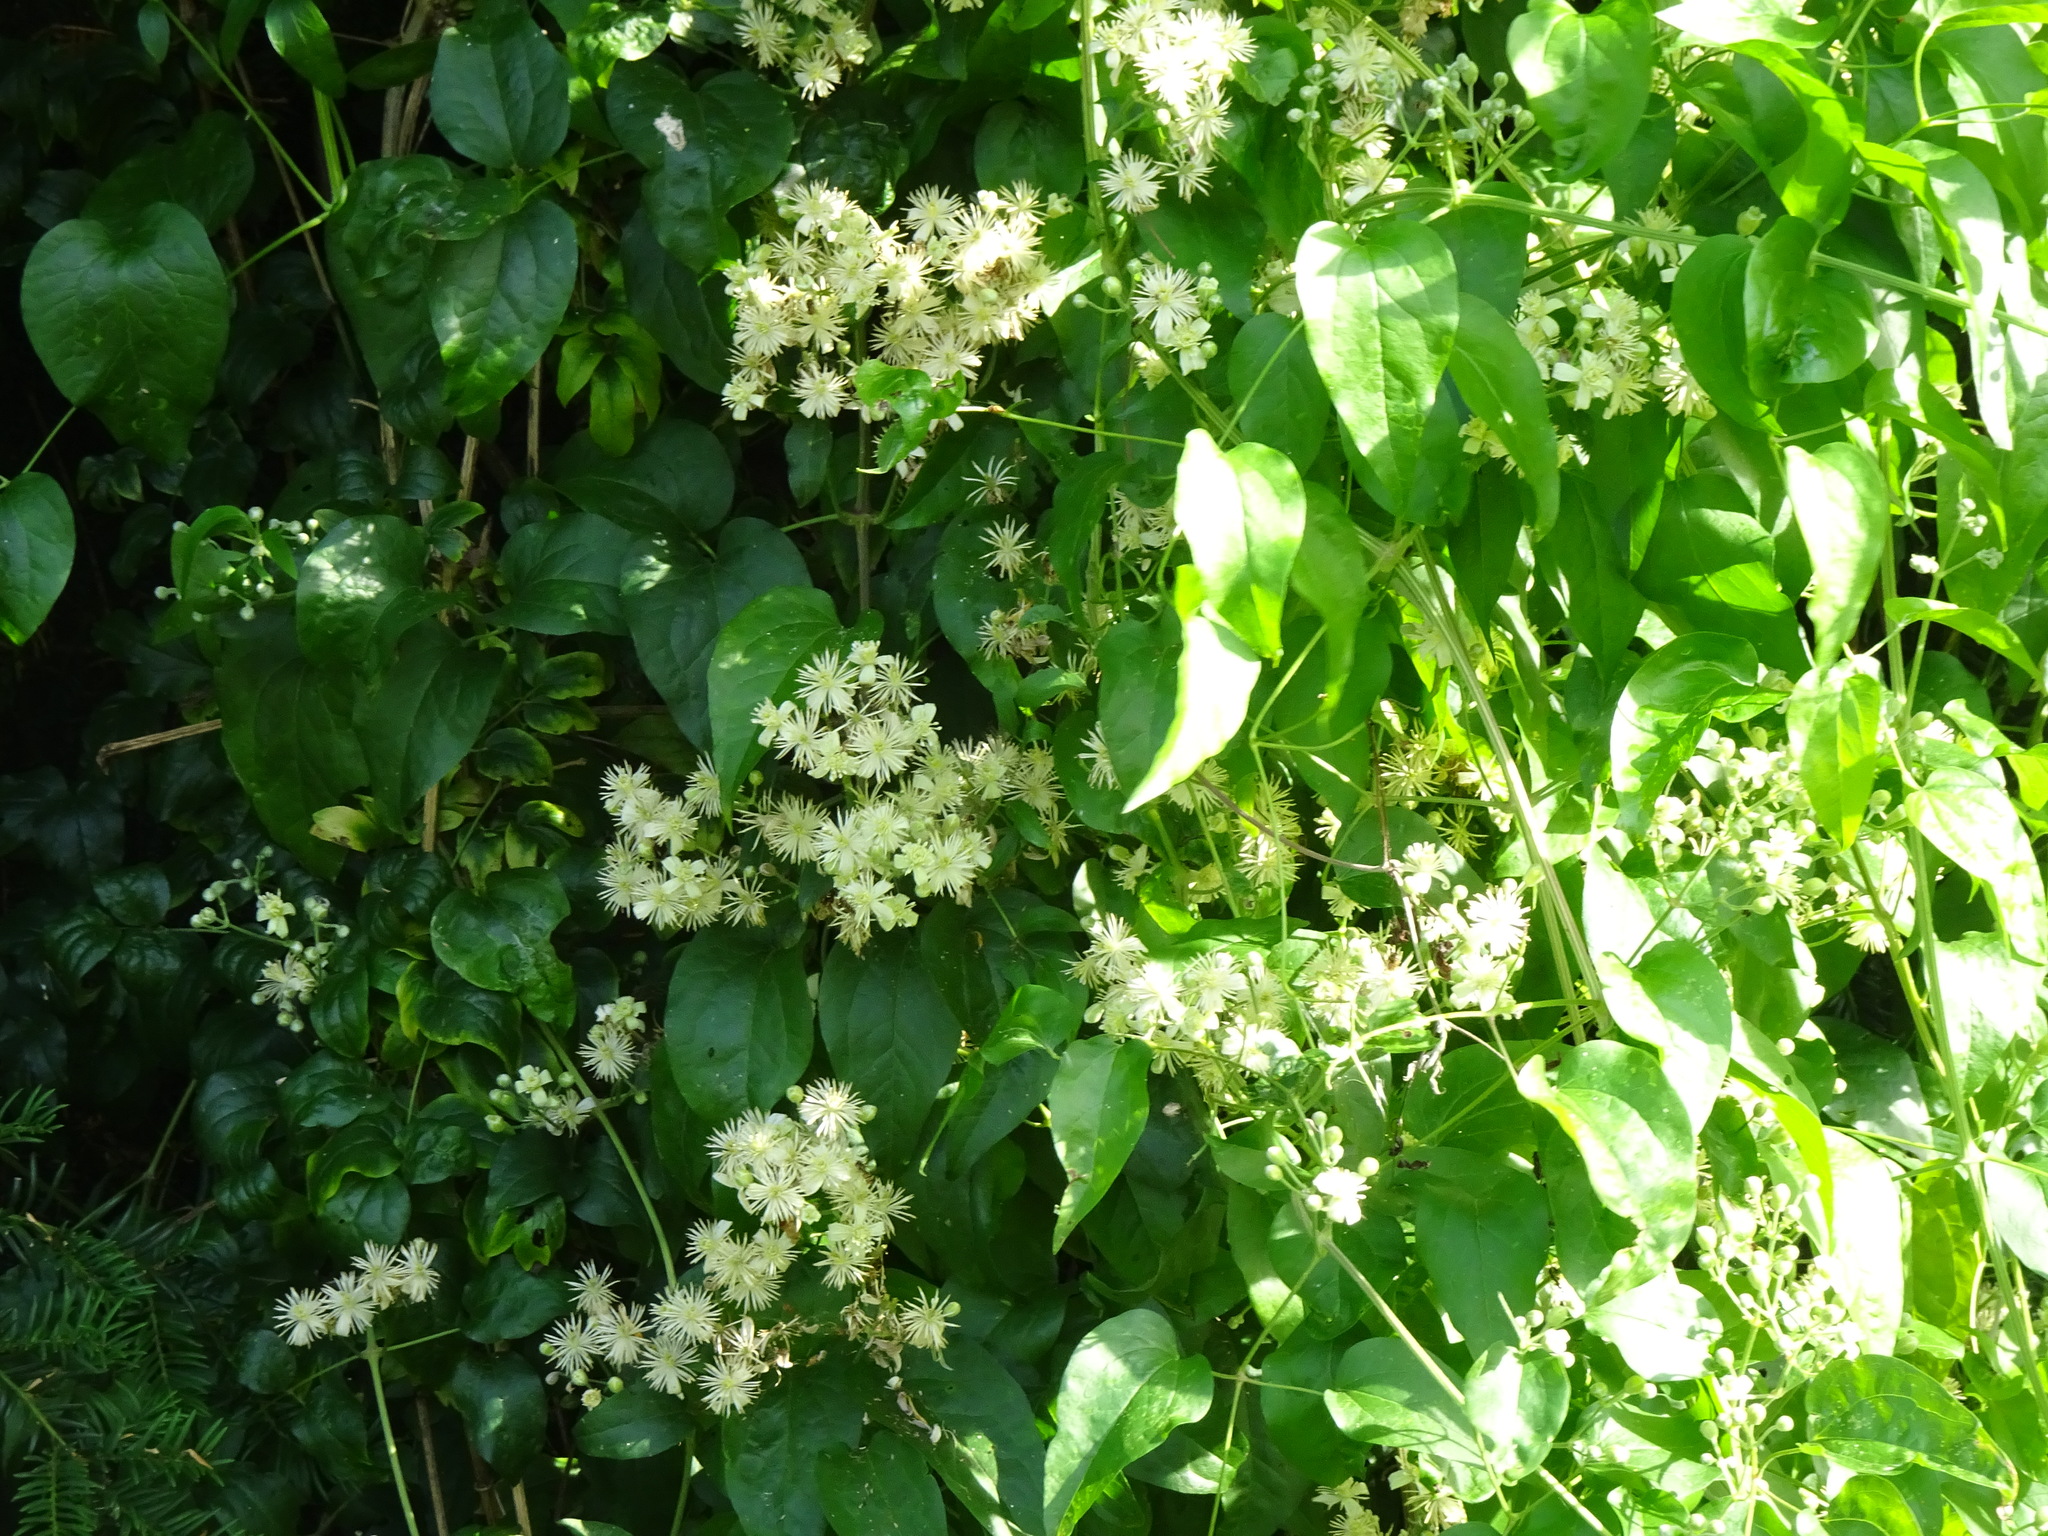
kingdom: Plantae
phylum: Tracheophyta
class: Magnoliopsida
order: Ranunculales
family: Ranunculaceae
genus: Clematis
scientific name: Clematis vitalba
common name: Evergreen clematis
